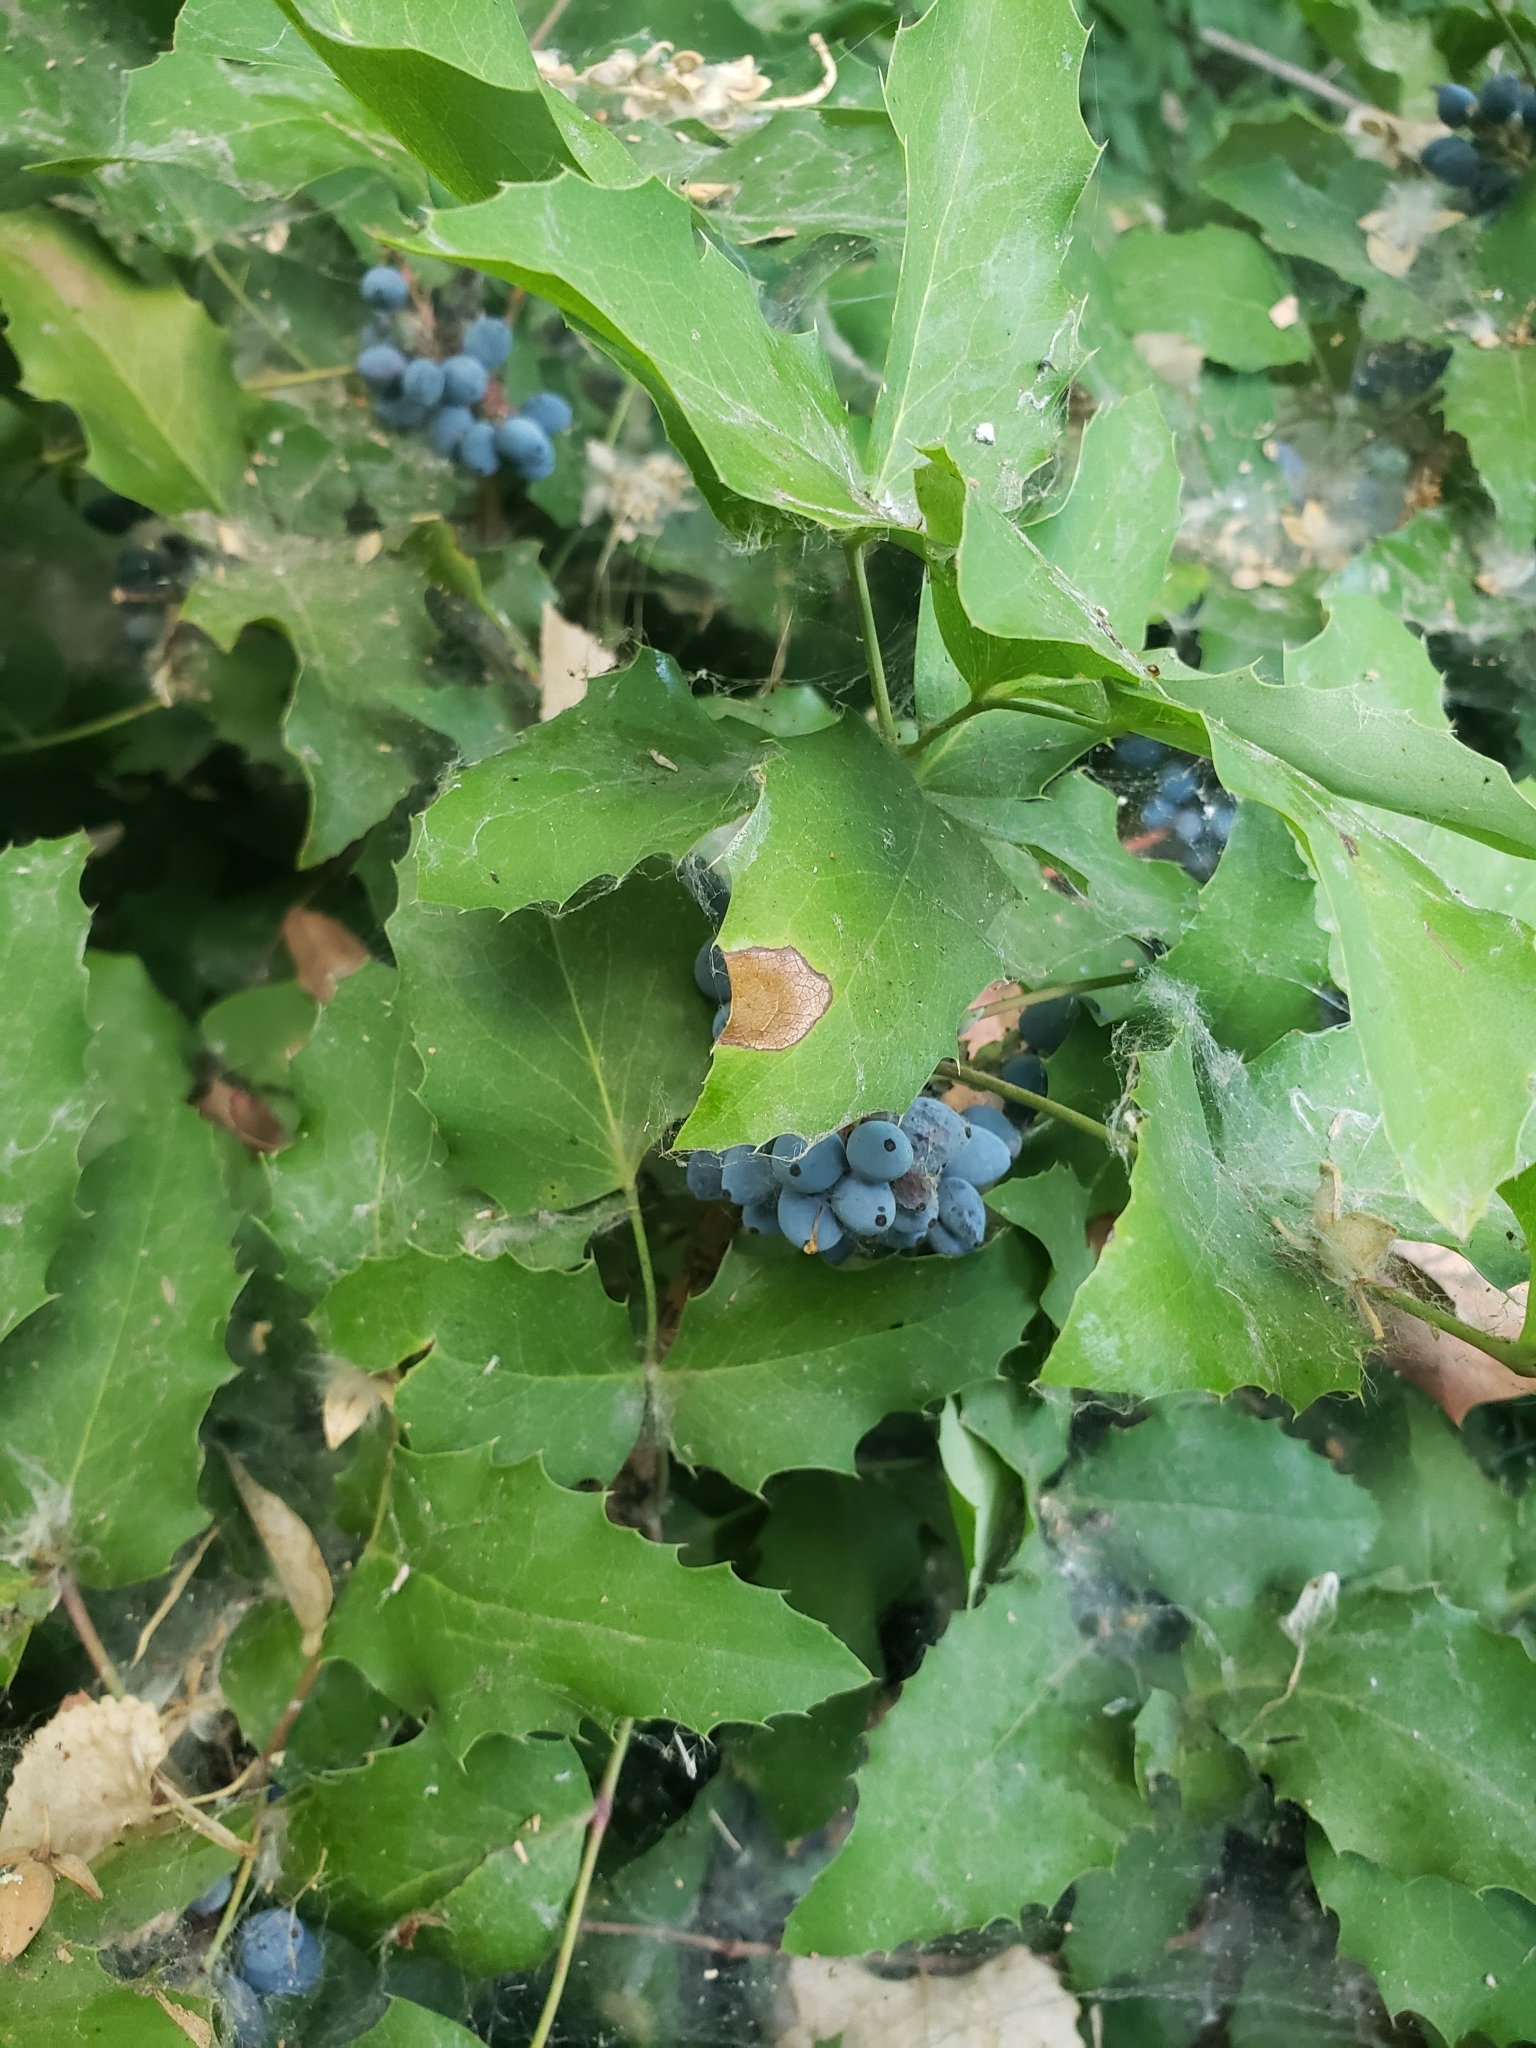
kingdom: Plantae
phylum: Tracheophyta
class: Magnoliopsida
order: Ranunculales
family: Berberidaceae
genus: Mahonia
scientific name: Mahonia repens
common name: Creeping oregon-grape
